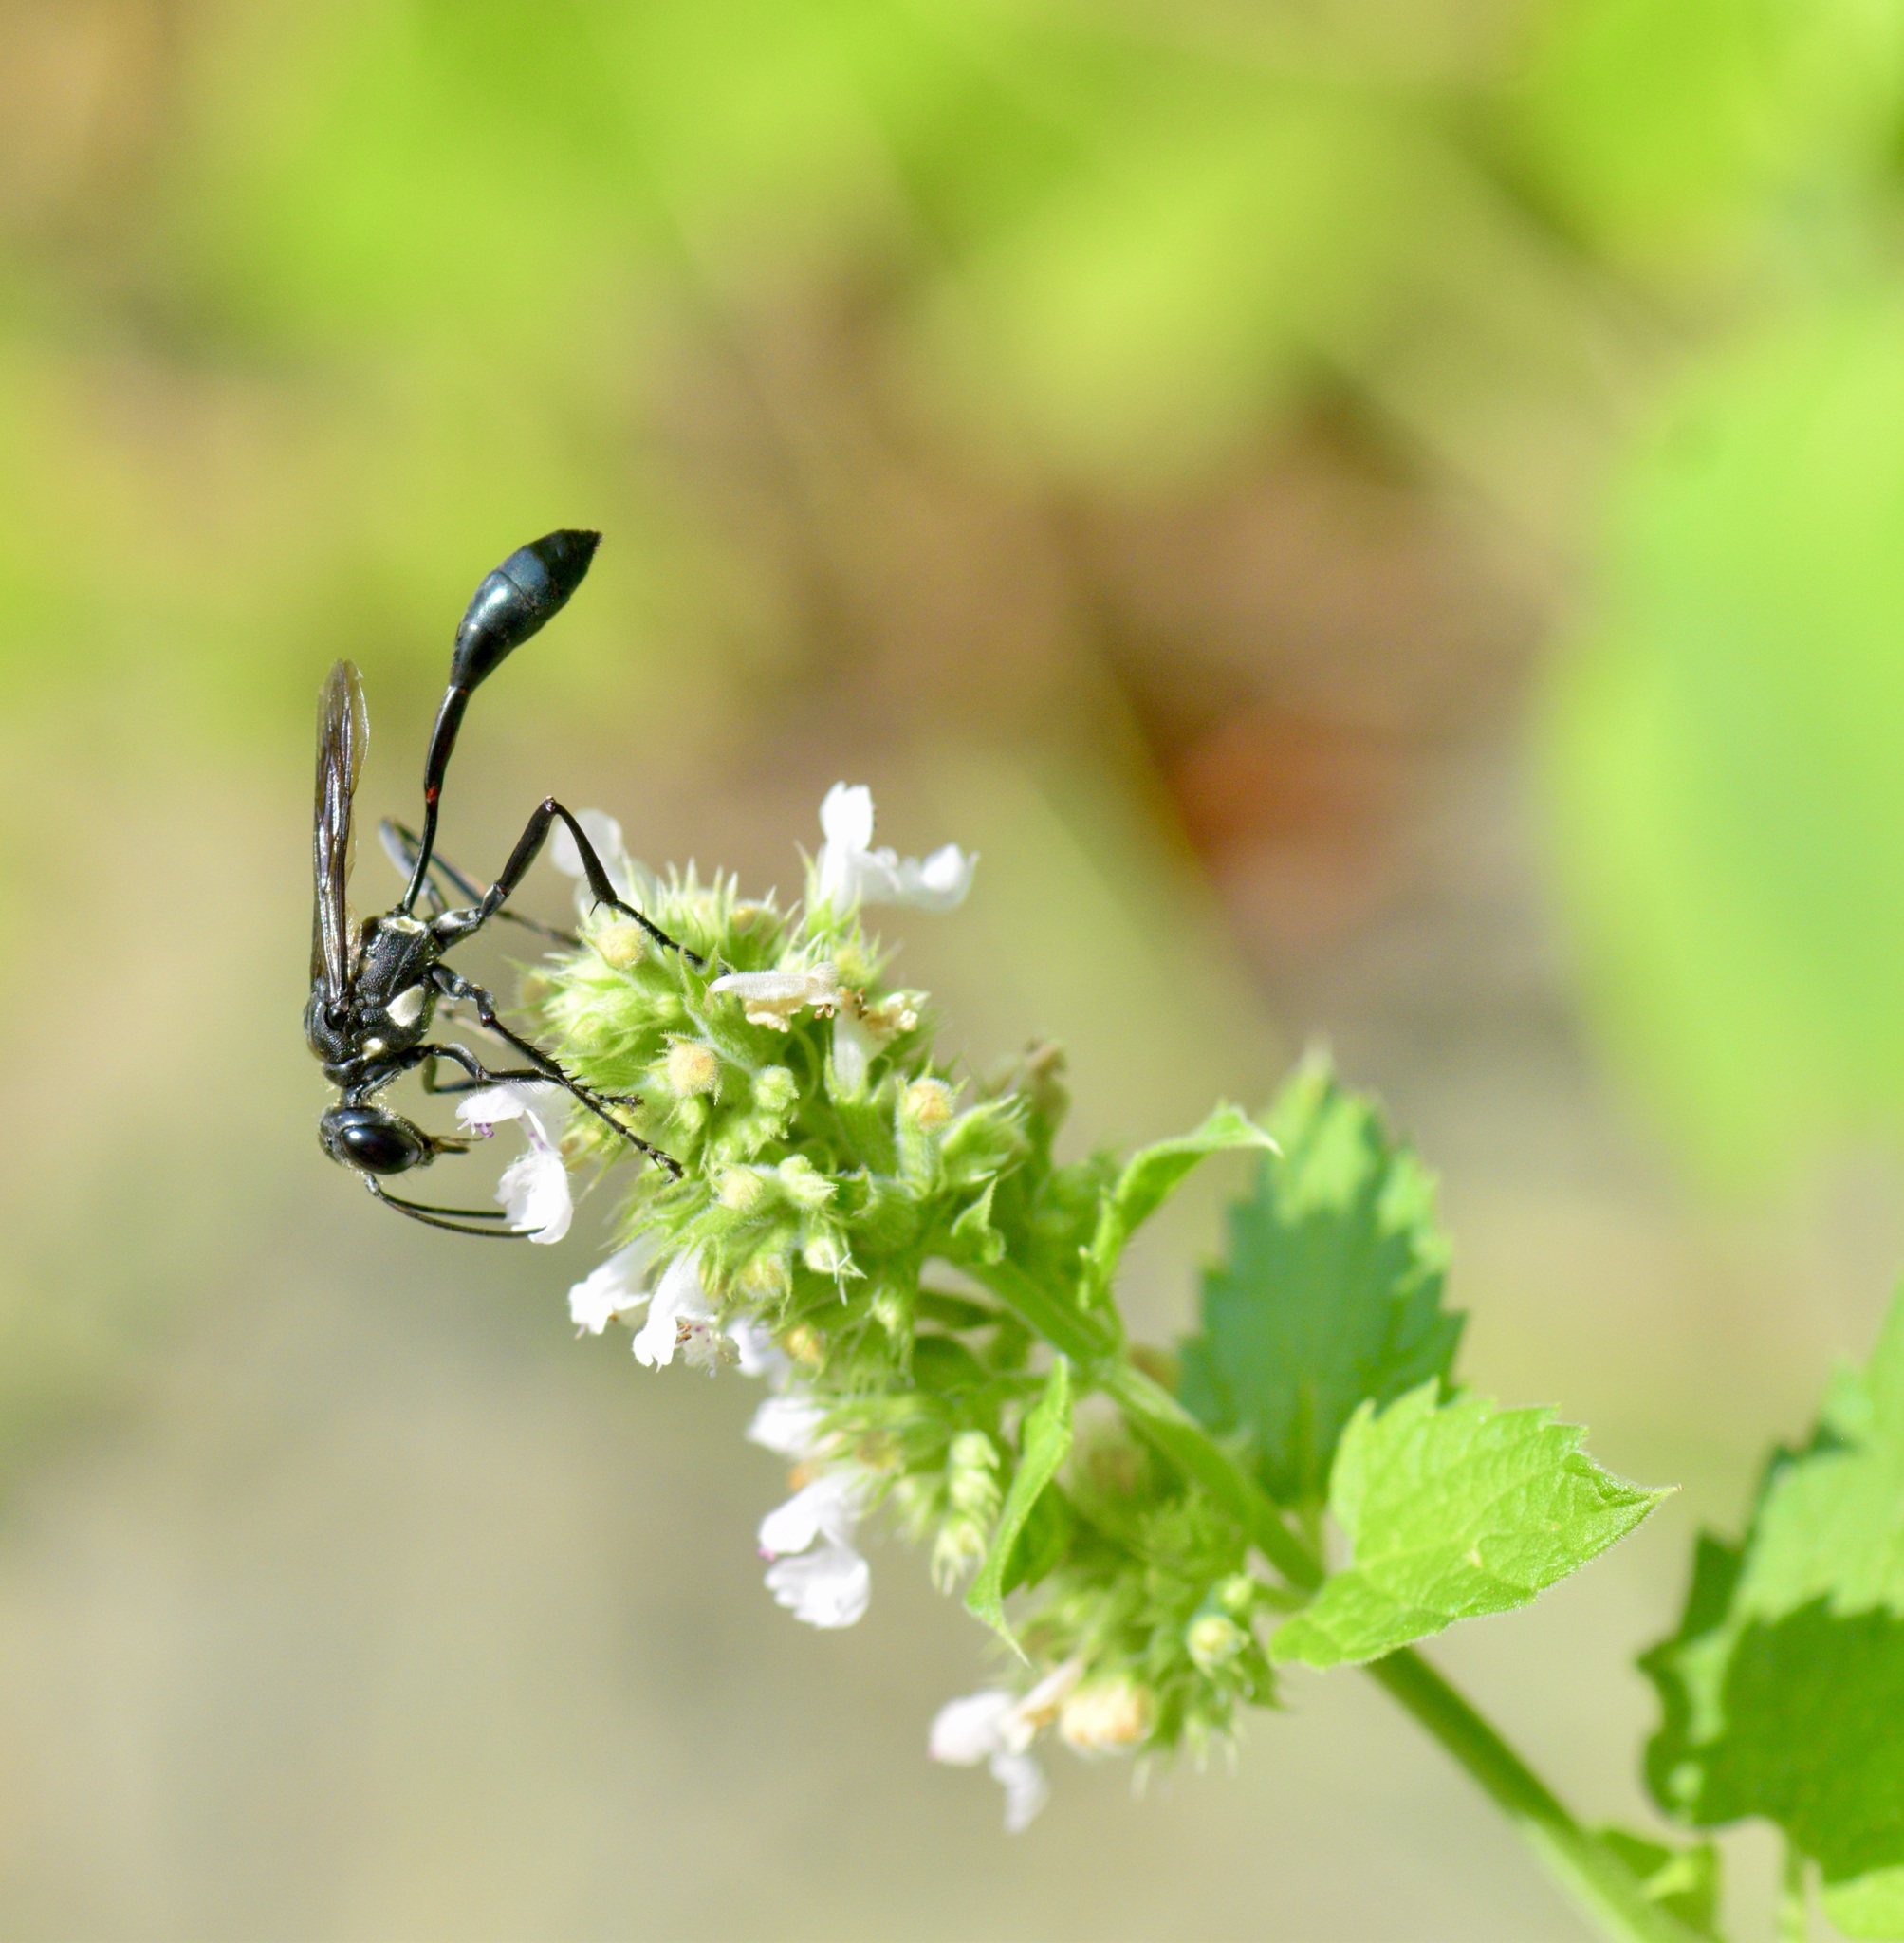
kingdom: Animalia
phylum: Arthropoda
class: Insecta
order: Hymenoptera
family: Sphecidae
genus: Eremnophila
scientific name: Eremnophila aureonotata
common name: Gold-marked thread-waisted wasp
